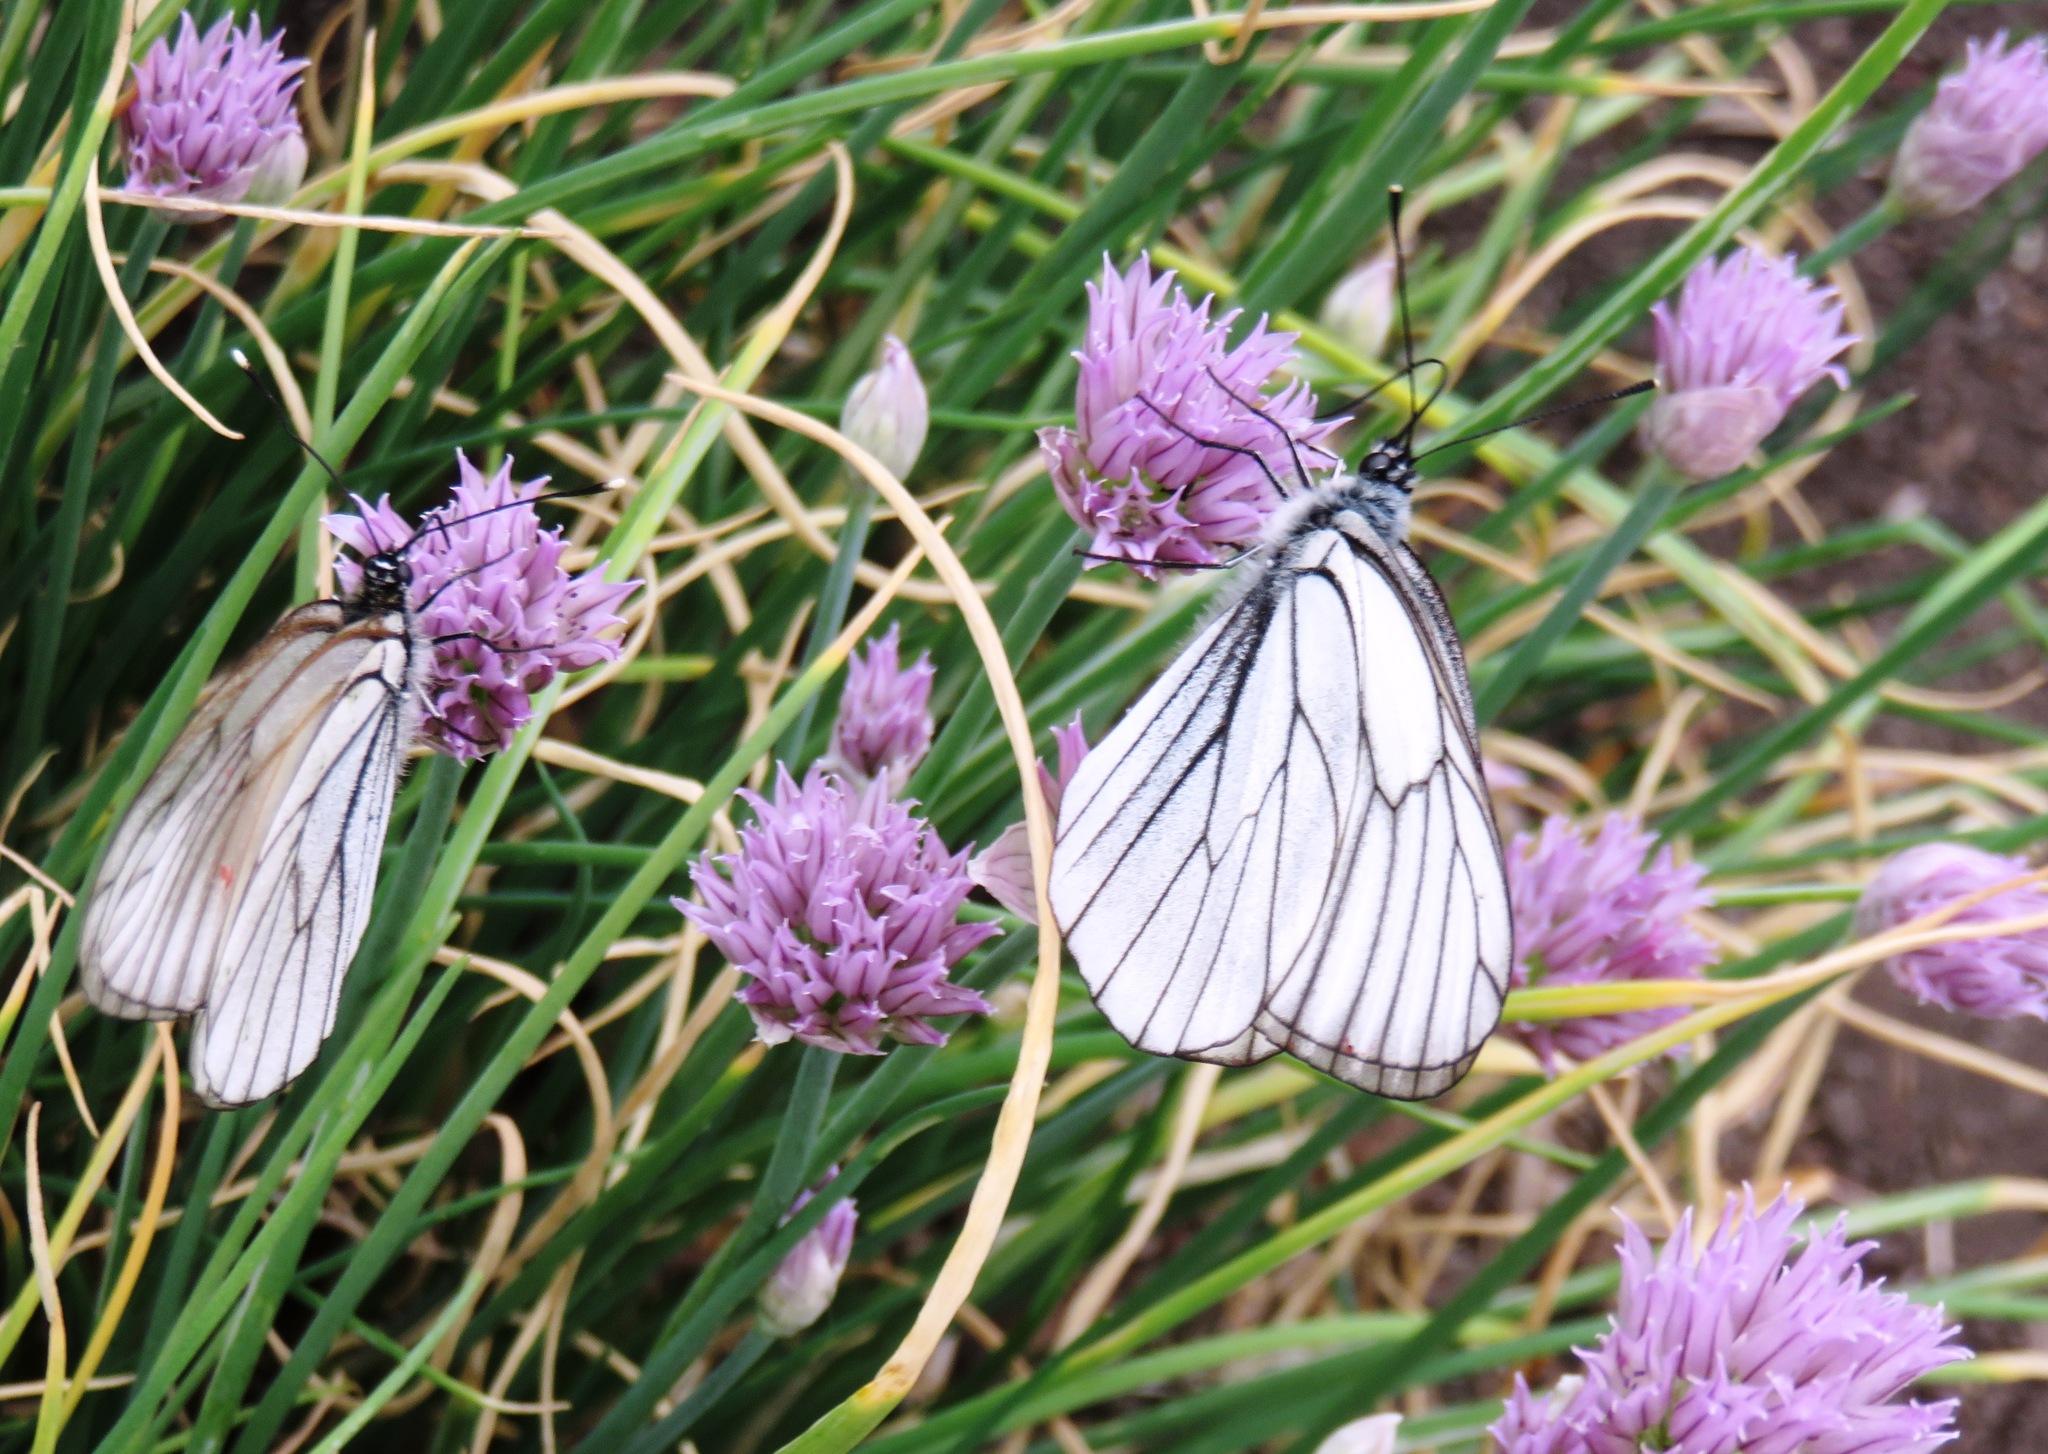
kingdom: Animalia
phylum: Arthropoda
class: Insecta
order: Lepidoptera
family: Pieridae
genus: Aporia
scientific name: Aporia crataegi
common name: Black-veined white
